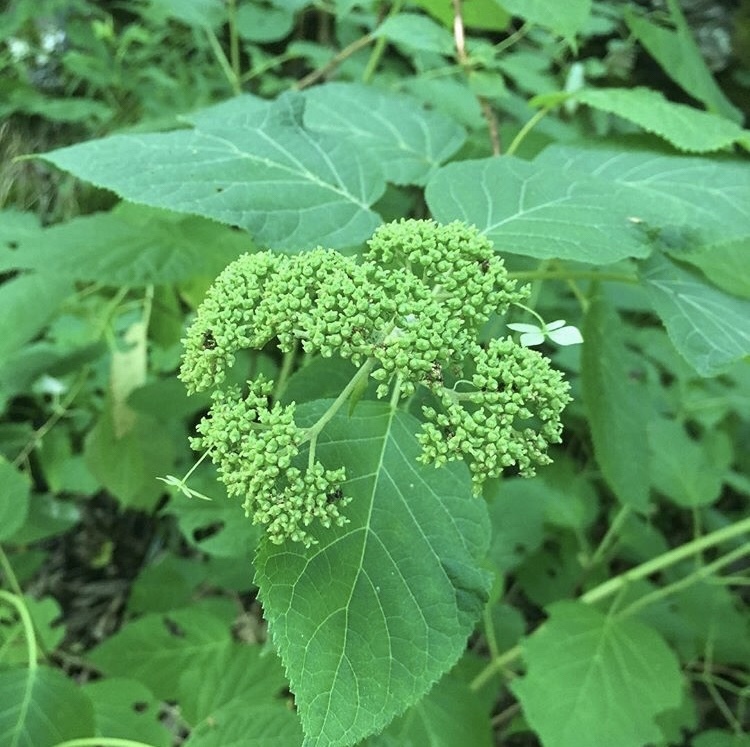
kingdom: Plantae
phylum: Tracheophyta
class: Magnoliopsida
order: Cornales
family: Hydrangeaceae
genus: Hydrangea
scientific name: Hydrangea arborescens
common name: Sevenbark
